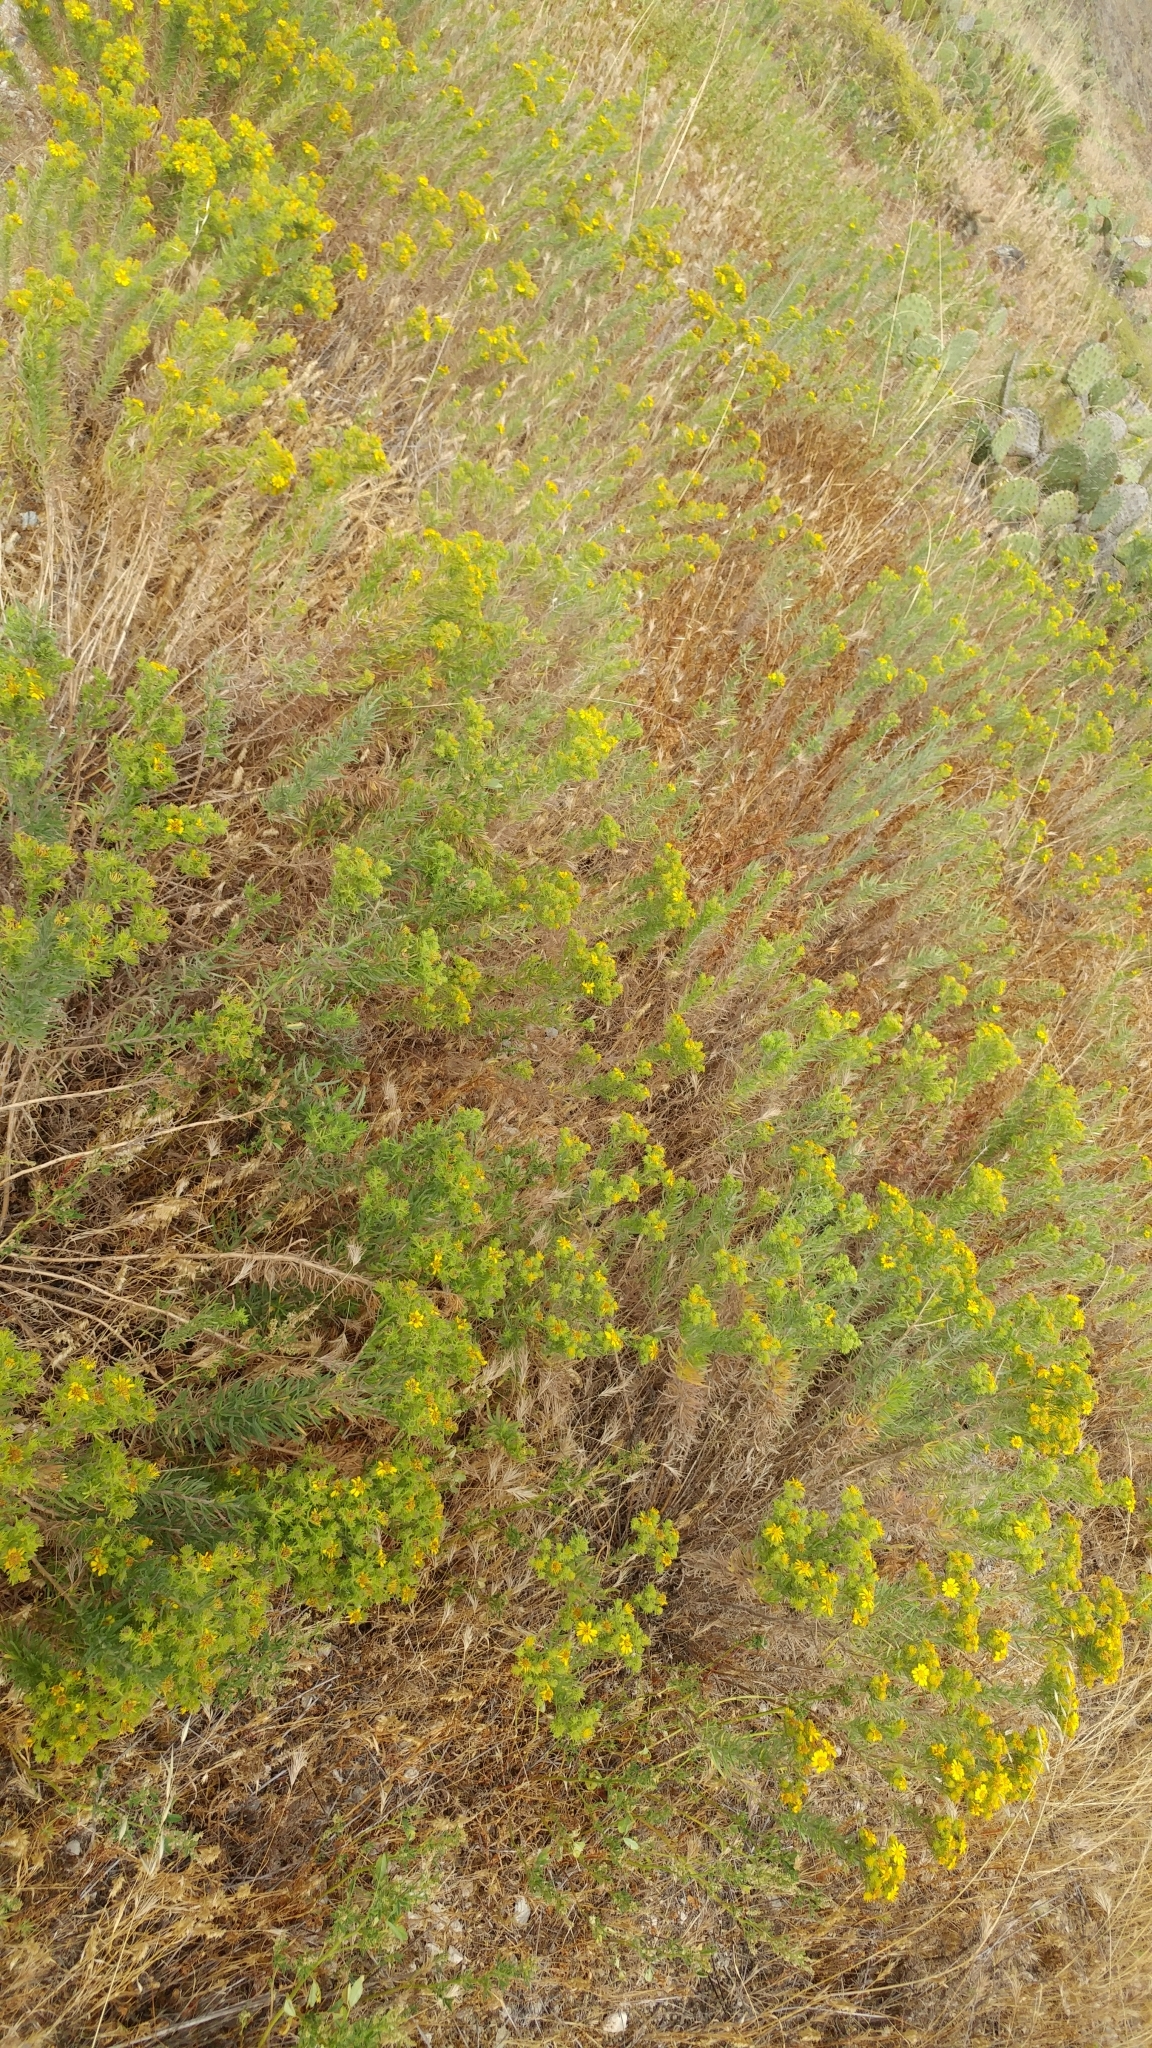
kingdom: Plantae
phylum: Tracheophyta
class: Magnoliopsida
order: Asterales
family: Asteraceae
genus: Deinandra
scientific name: Deinandra clementina
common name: Island tarplant
